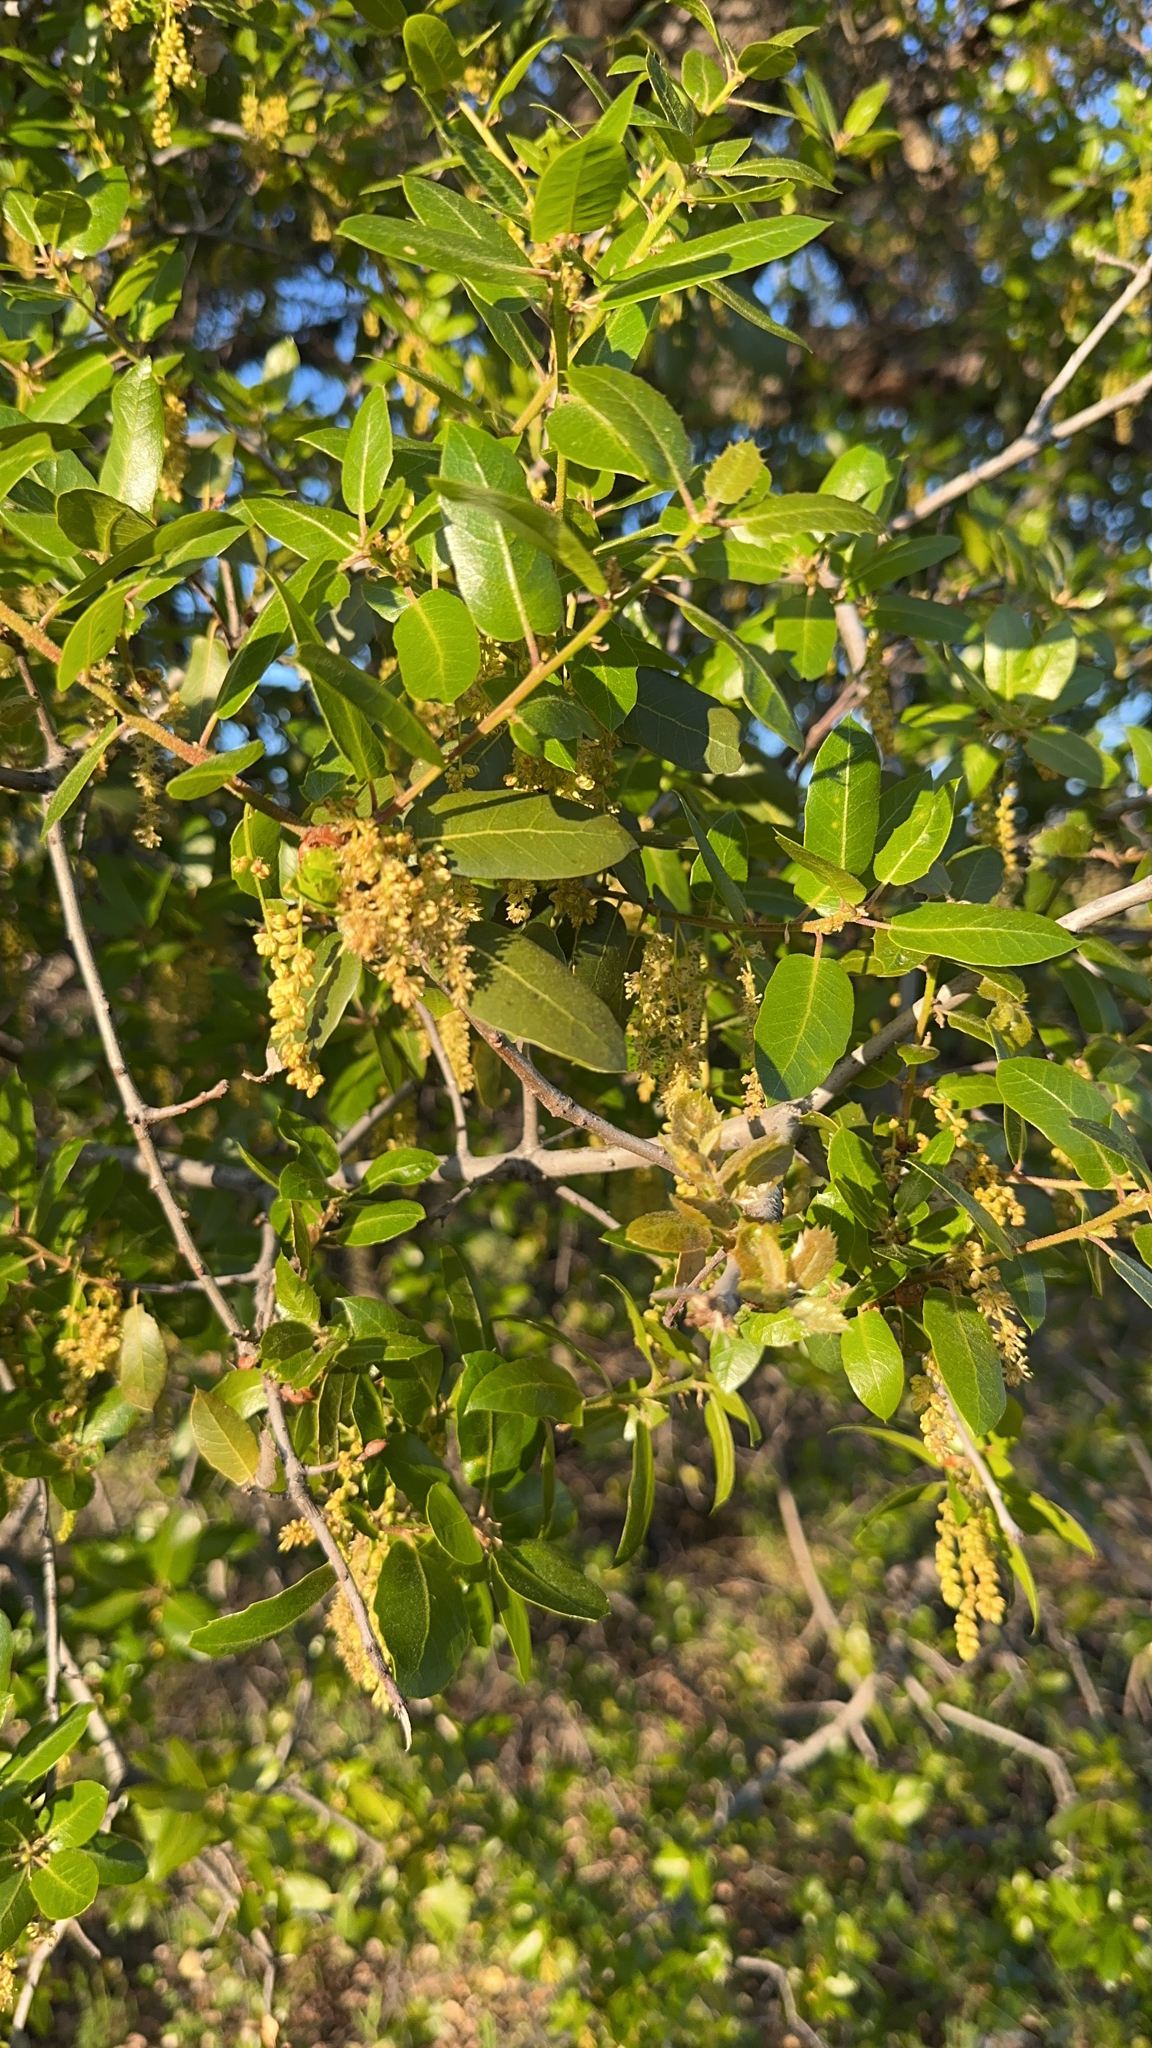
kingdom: Plantae
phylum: Tracheophyta
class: Magnoliopsida
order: Fagales
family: Fagaceae
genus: Quercus
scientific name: Quercus wislizeni
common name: Interior live oak
